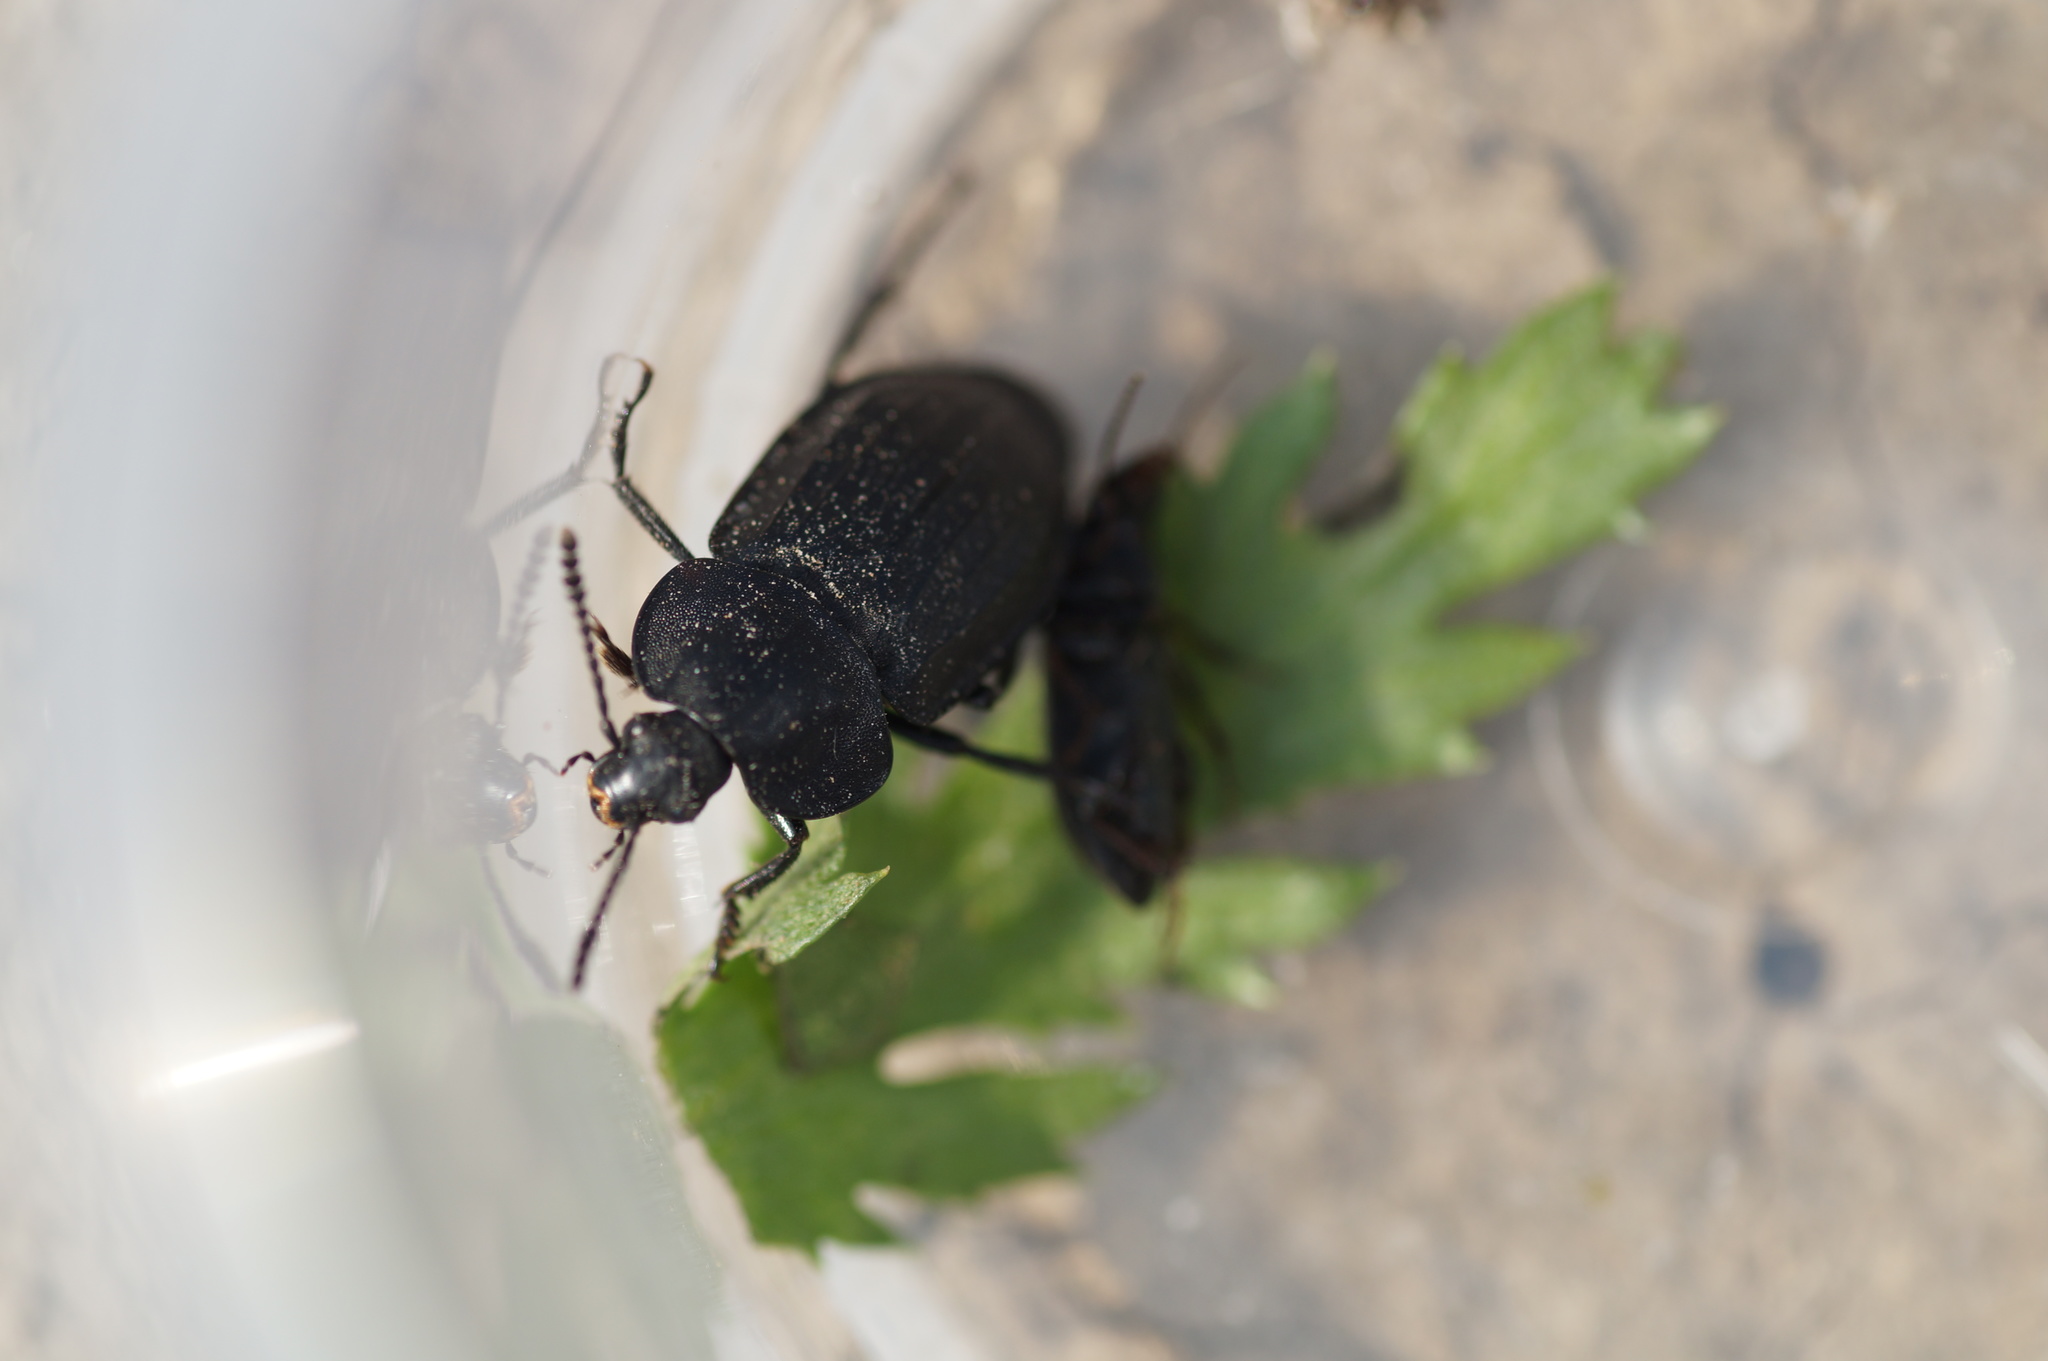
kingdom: Animalia
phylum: Arthropoda
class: Insecta
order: Coleoptera
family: Staphylinidae
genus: Silpha
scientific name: Silpha tristis
